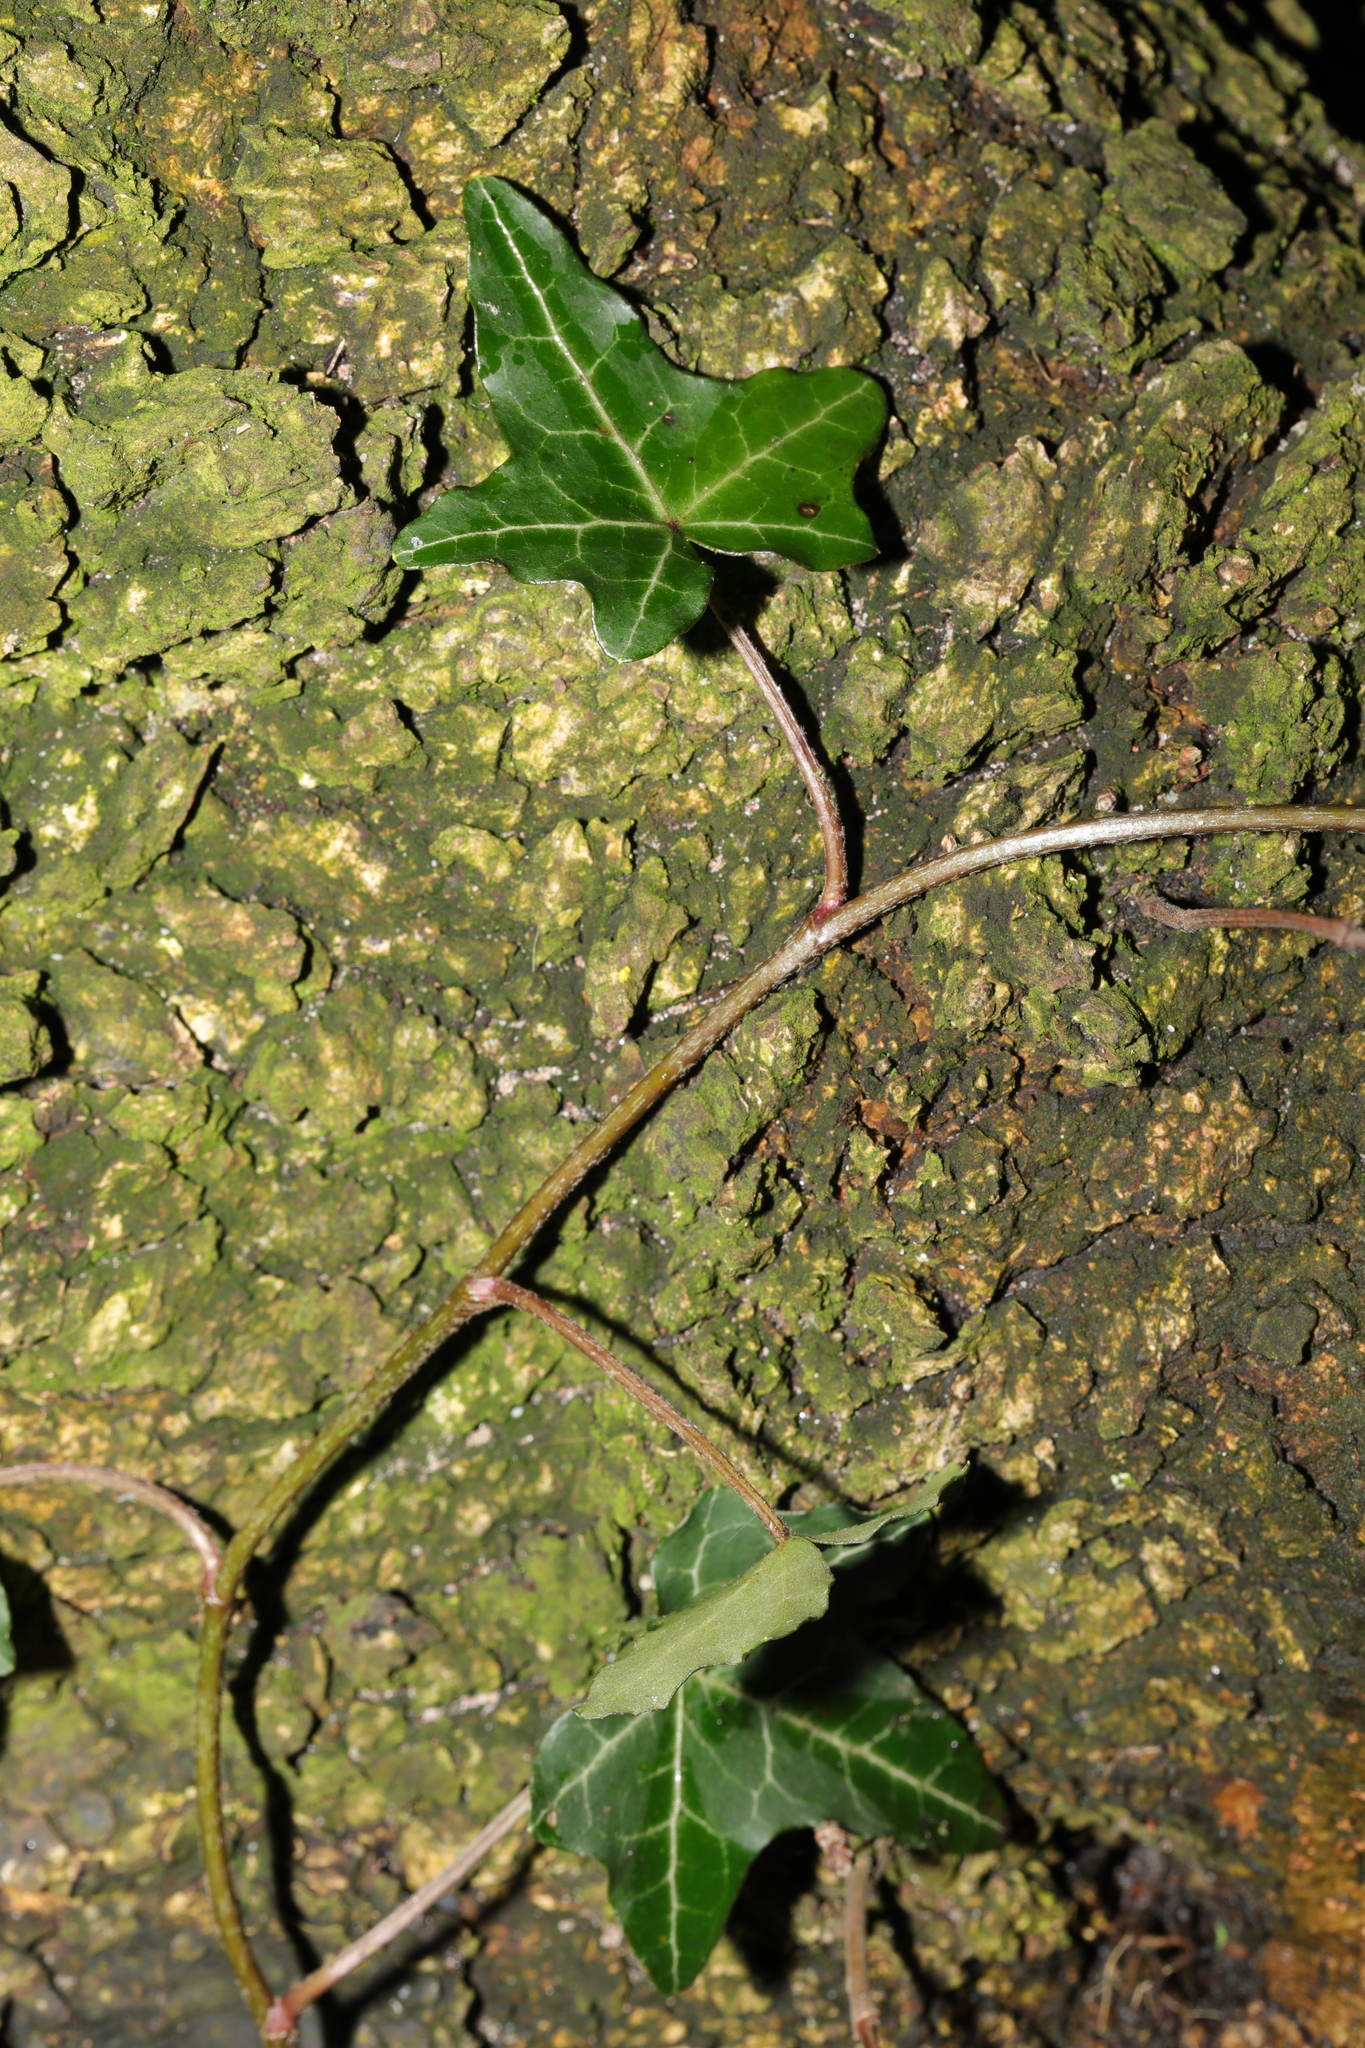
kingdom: Plantae
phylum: Tracheophyta
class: Magnoliopsida
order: Apiales
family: Araliaceae
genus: Hedera
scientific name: Hedera helix
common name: Ivy
